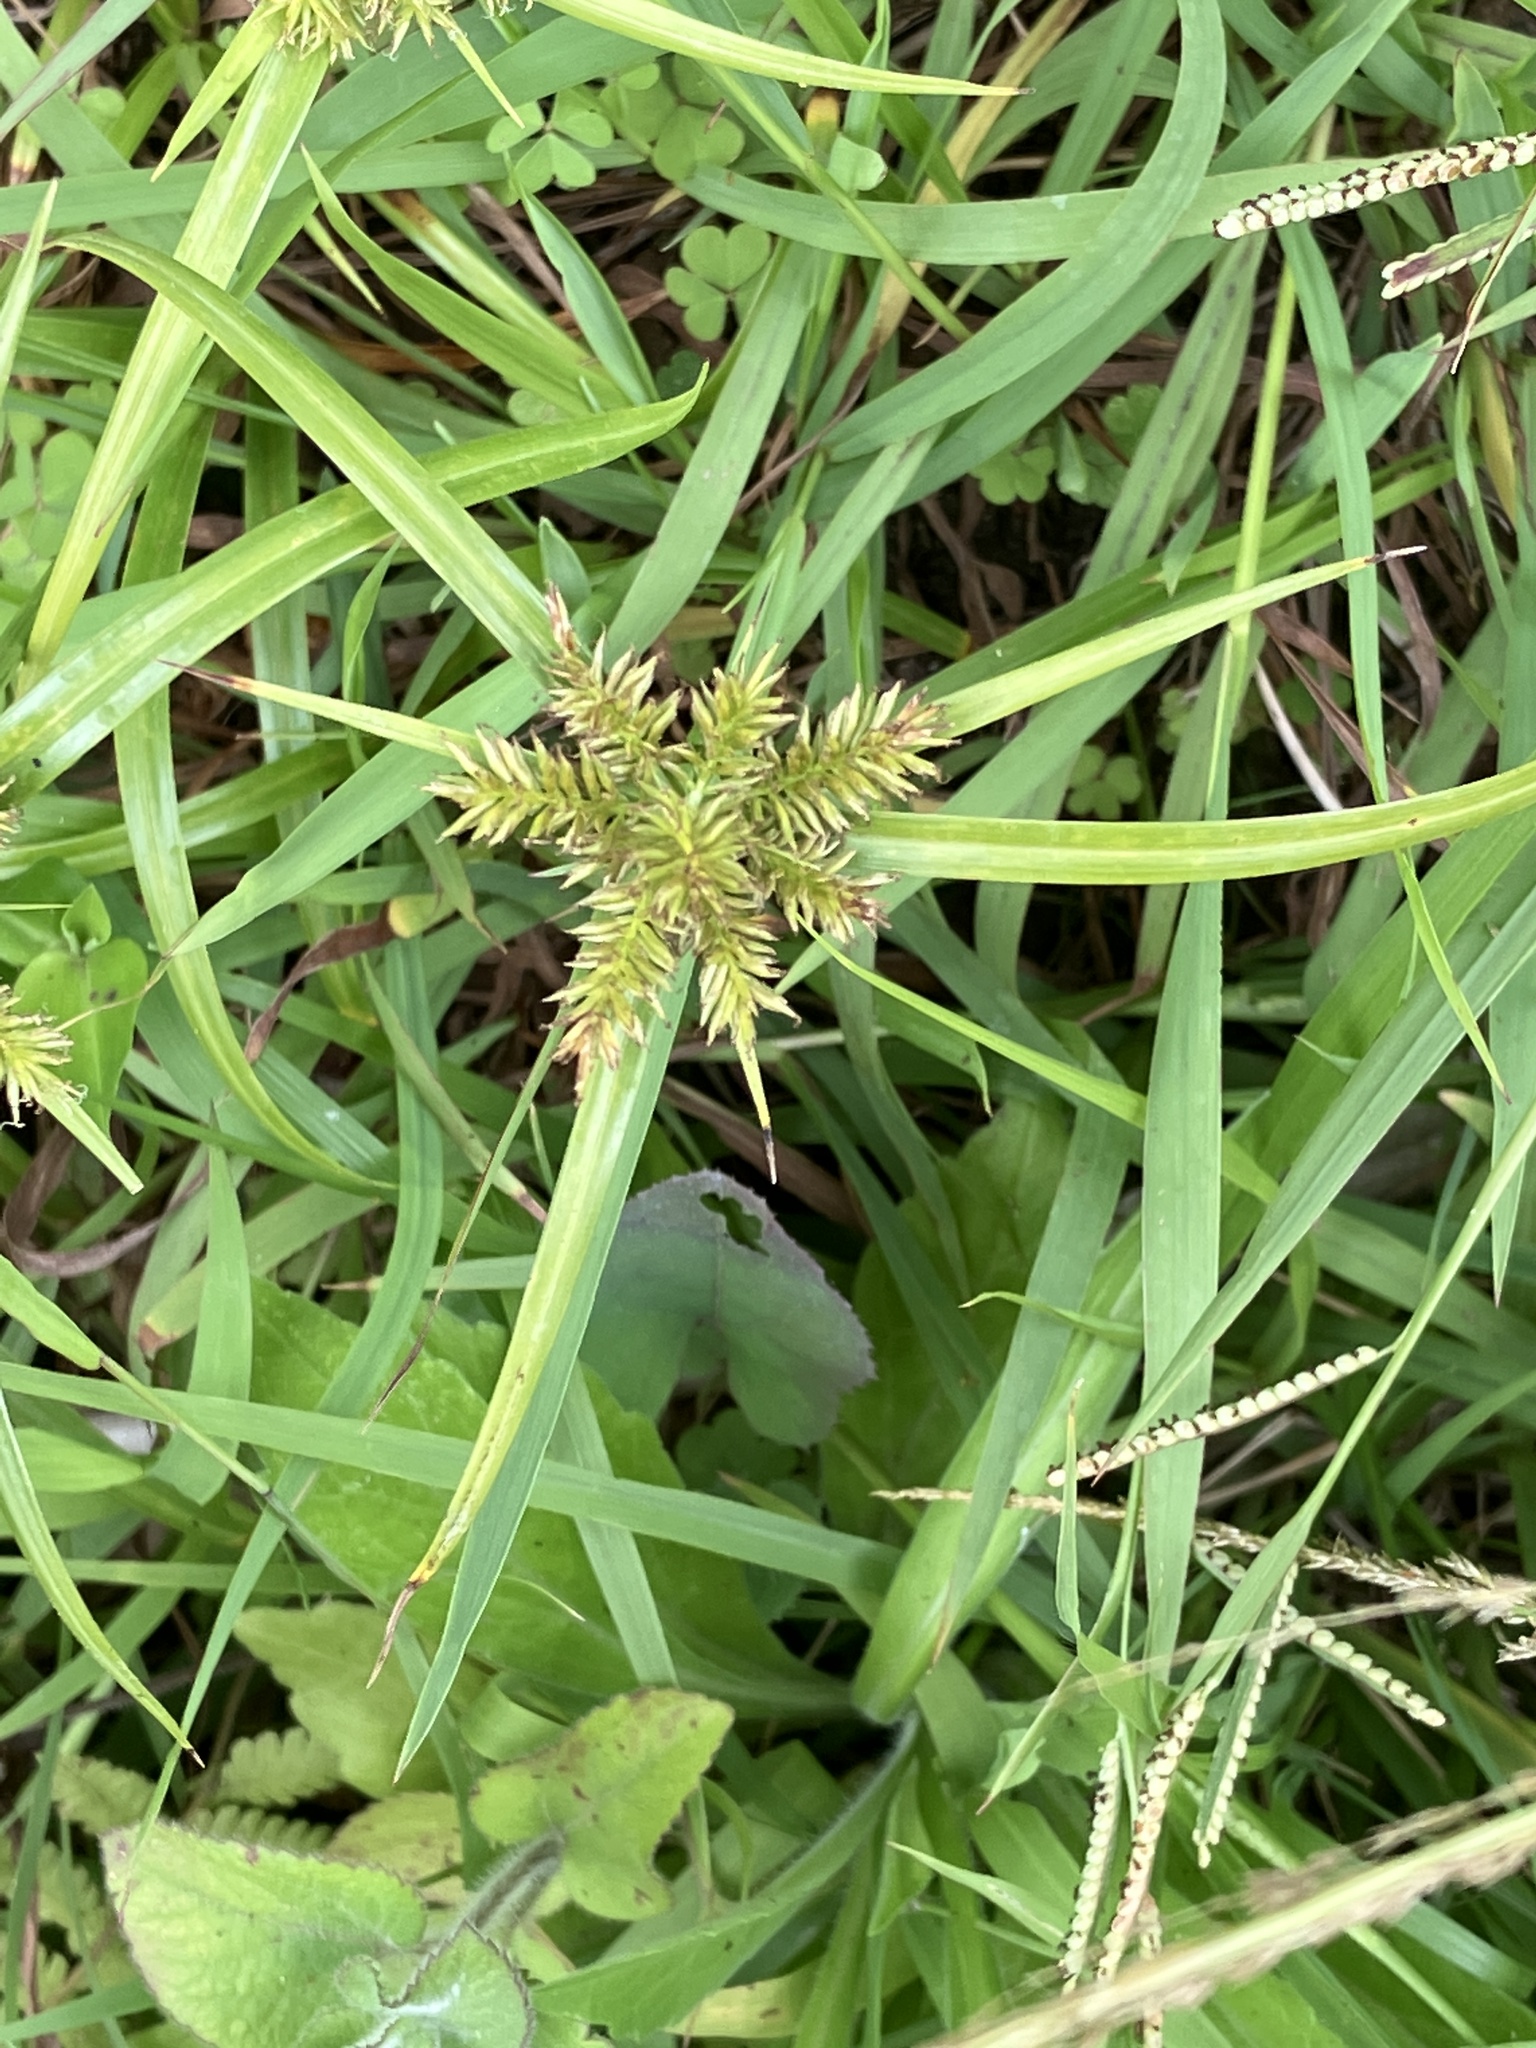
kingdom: Plantae
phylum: Tracheophyta
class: Liliopsida
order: Poales
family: Cyperaceae
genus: Cyperus
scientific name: Cyperus cyperoides
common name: Pacific island flat sedge
